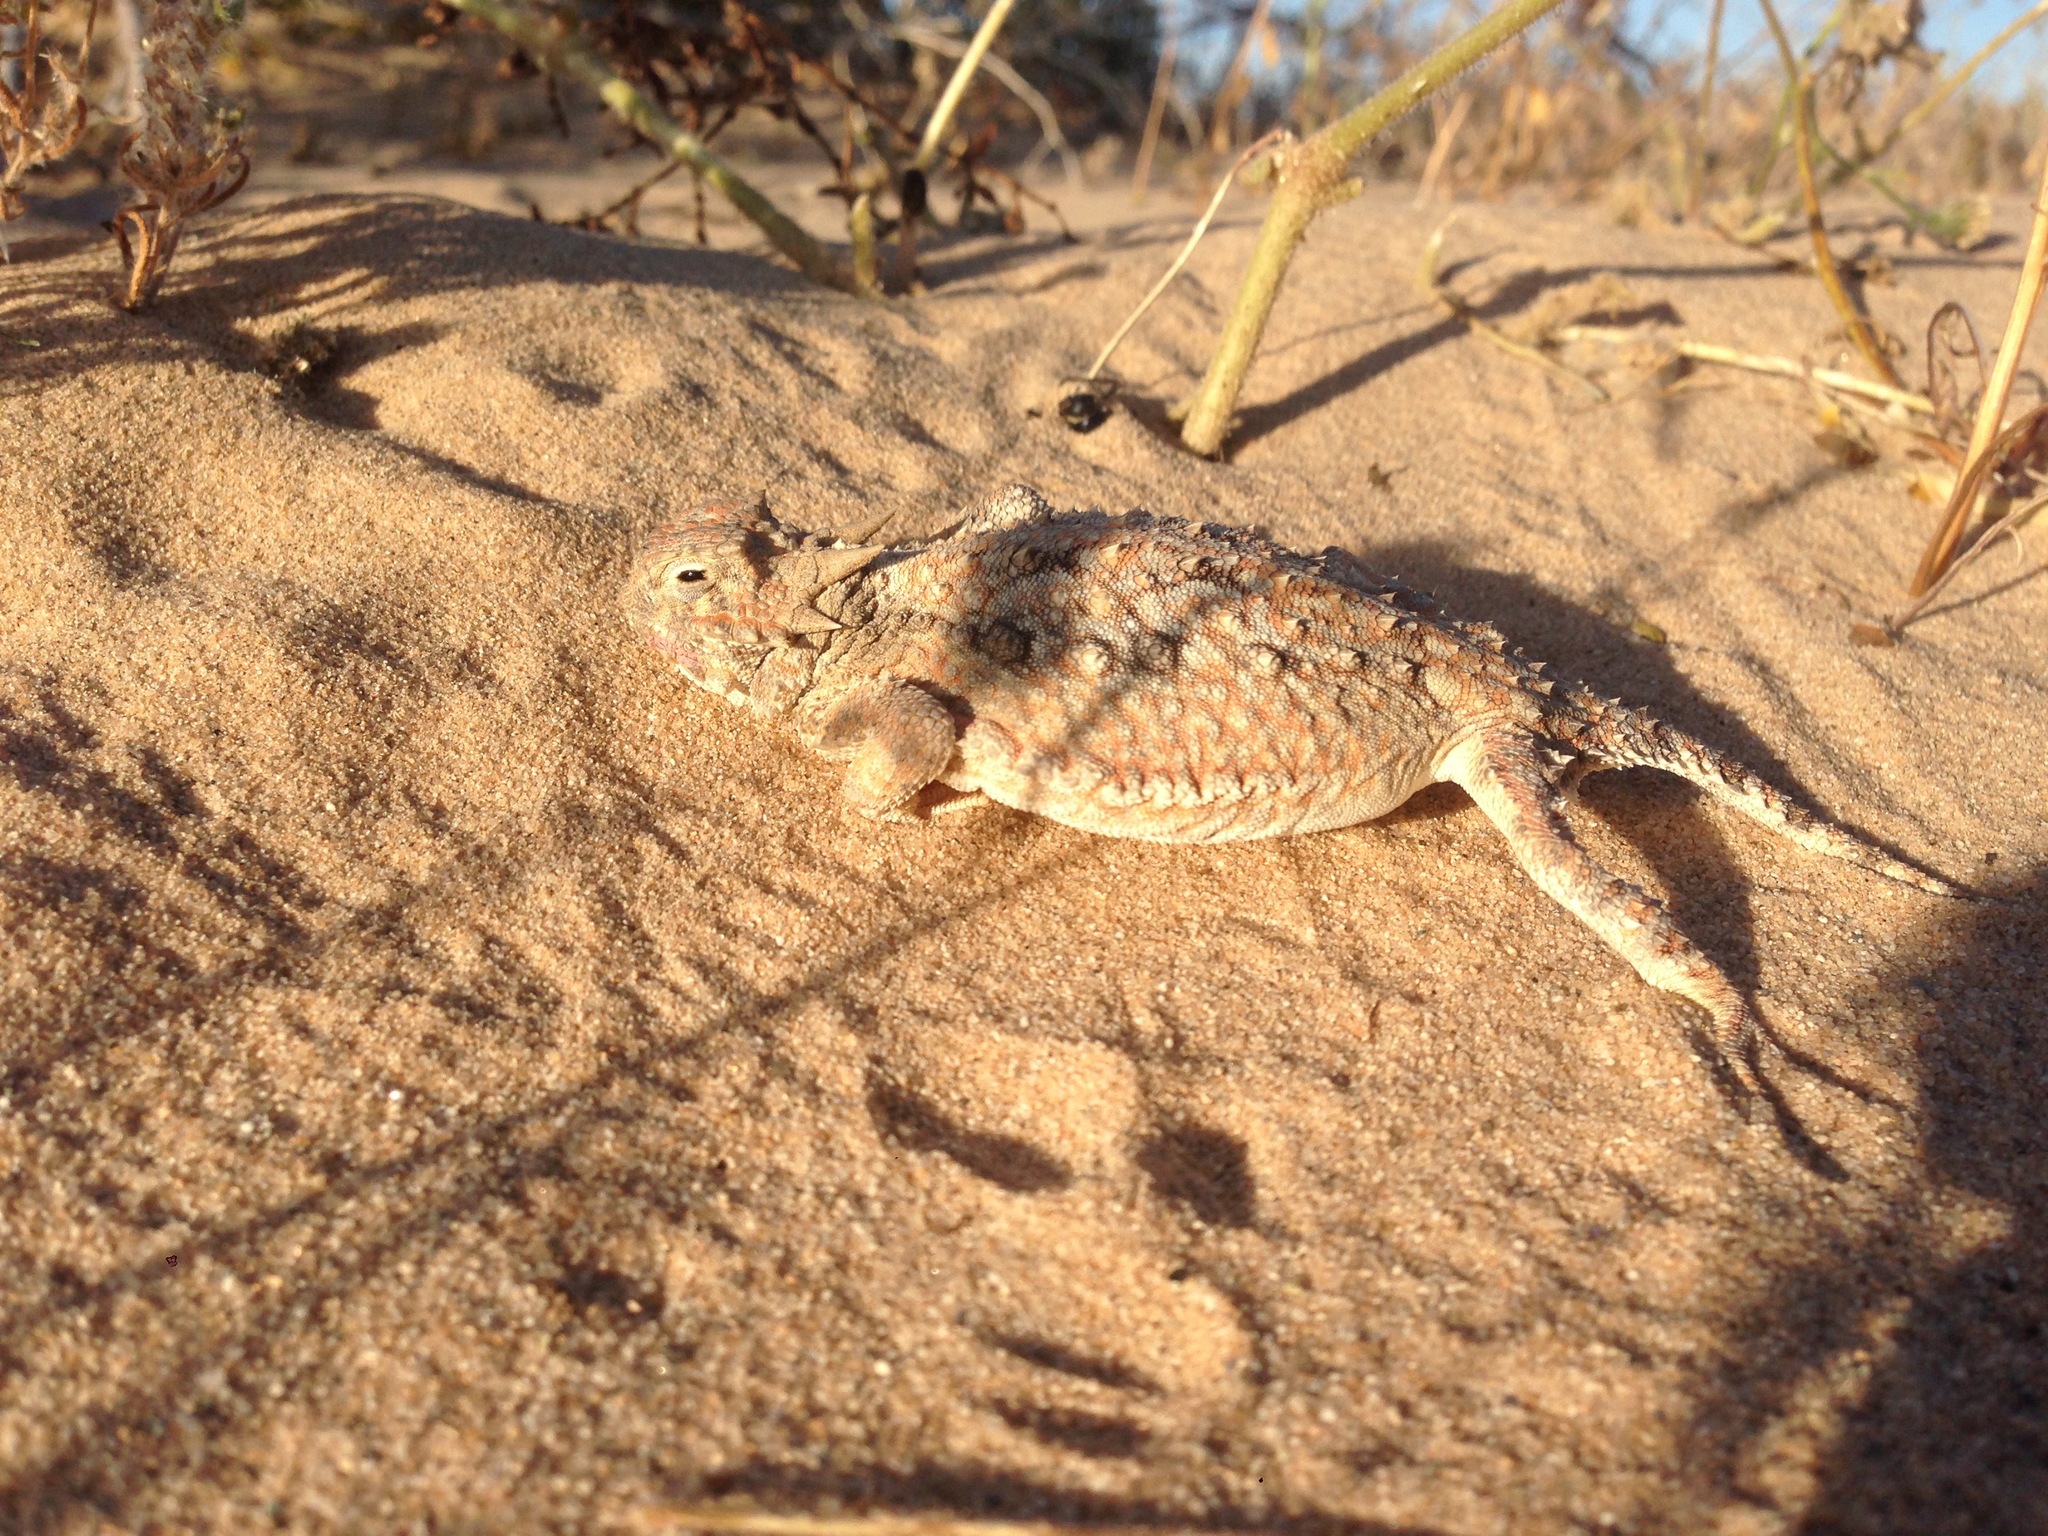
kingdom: Animalia
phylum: Chordata
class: Squamata
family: Phrynosomatidae
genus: Phrynosoma
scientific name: Phrynosoma platyrhinos
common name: Desert horned lizard
